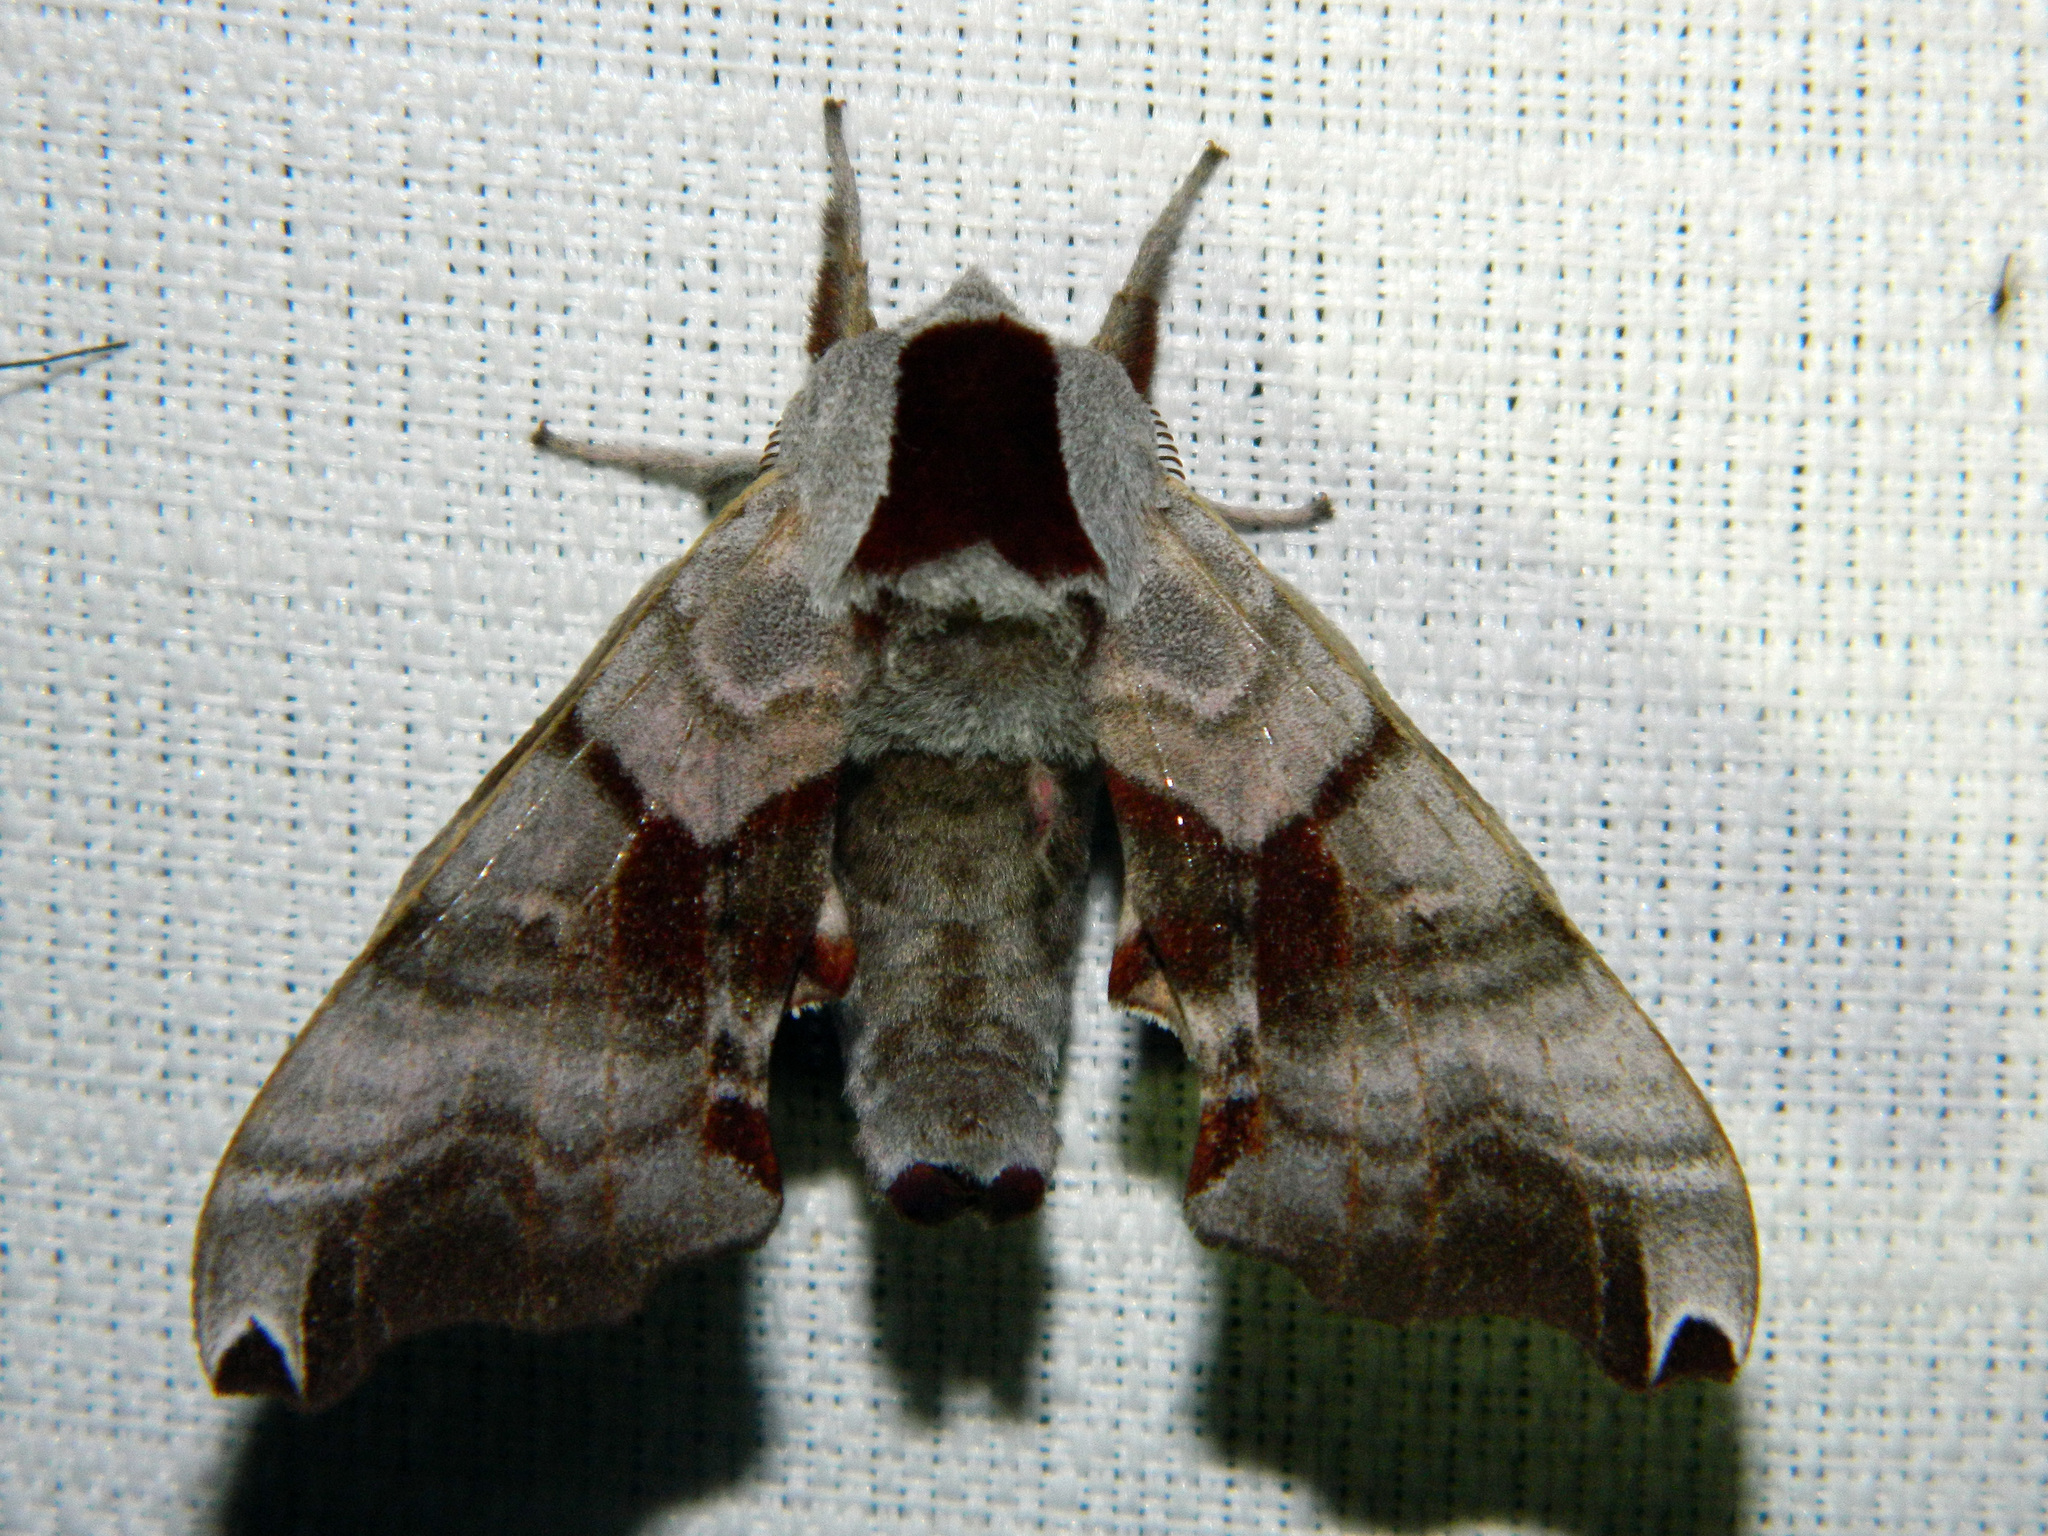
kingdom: Animalia
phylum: Arthropoda
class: Insecta
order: Lepidoptera
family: Sphingidae
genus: Smerinthus
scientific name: Smerinthus jamaicensis
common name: Twin spotted sphinx
